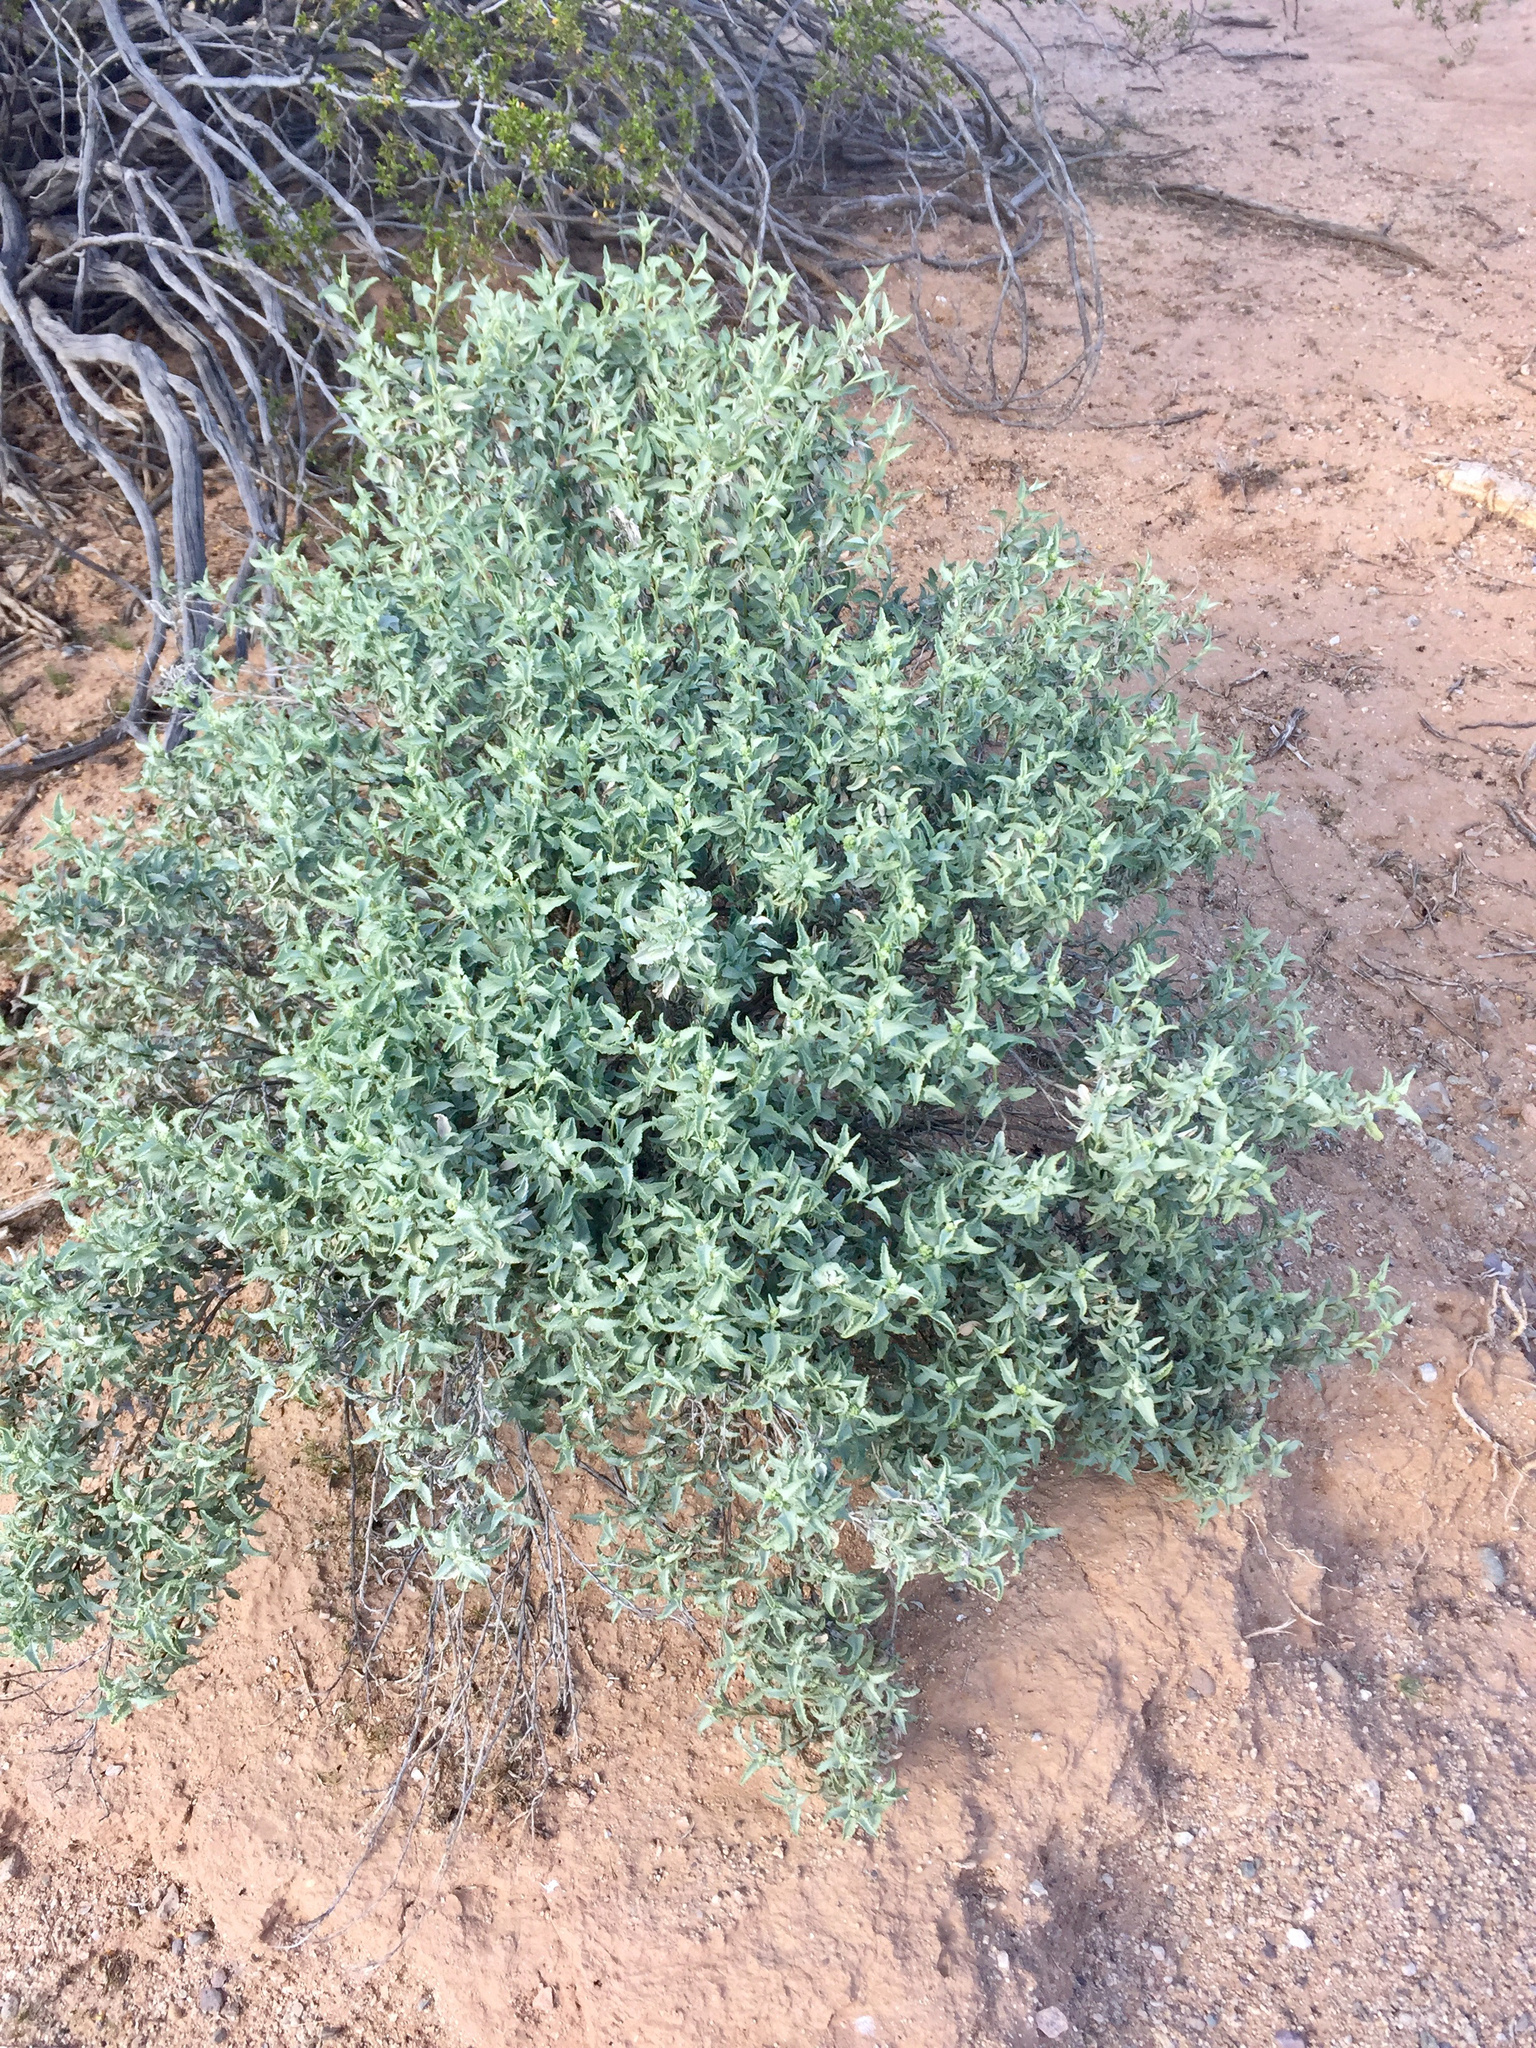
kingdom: Plantae
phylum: Tracheophyta
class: Magnoliopsida
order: Asterales
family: Asteraceae
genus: Ambrosia
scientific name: Ambrosia deltoidea
